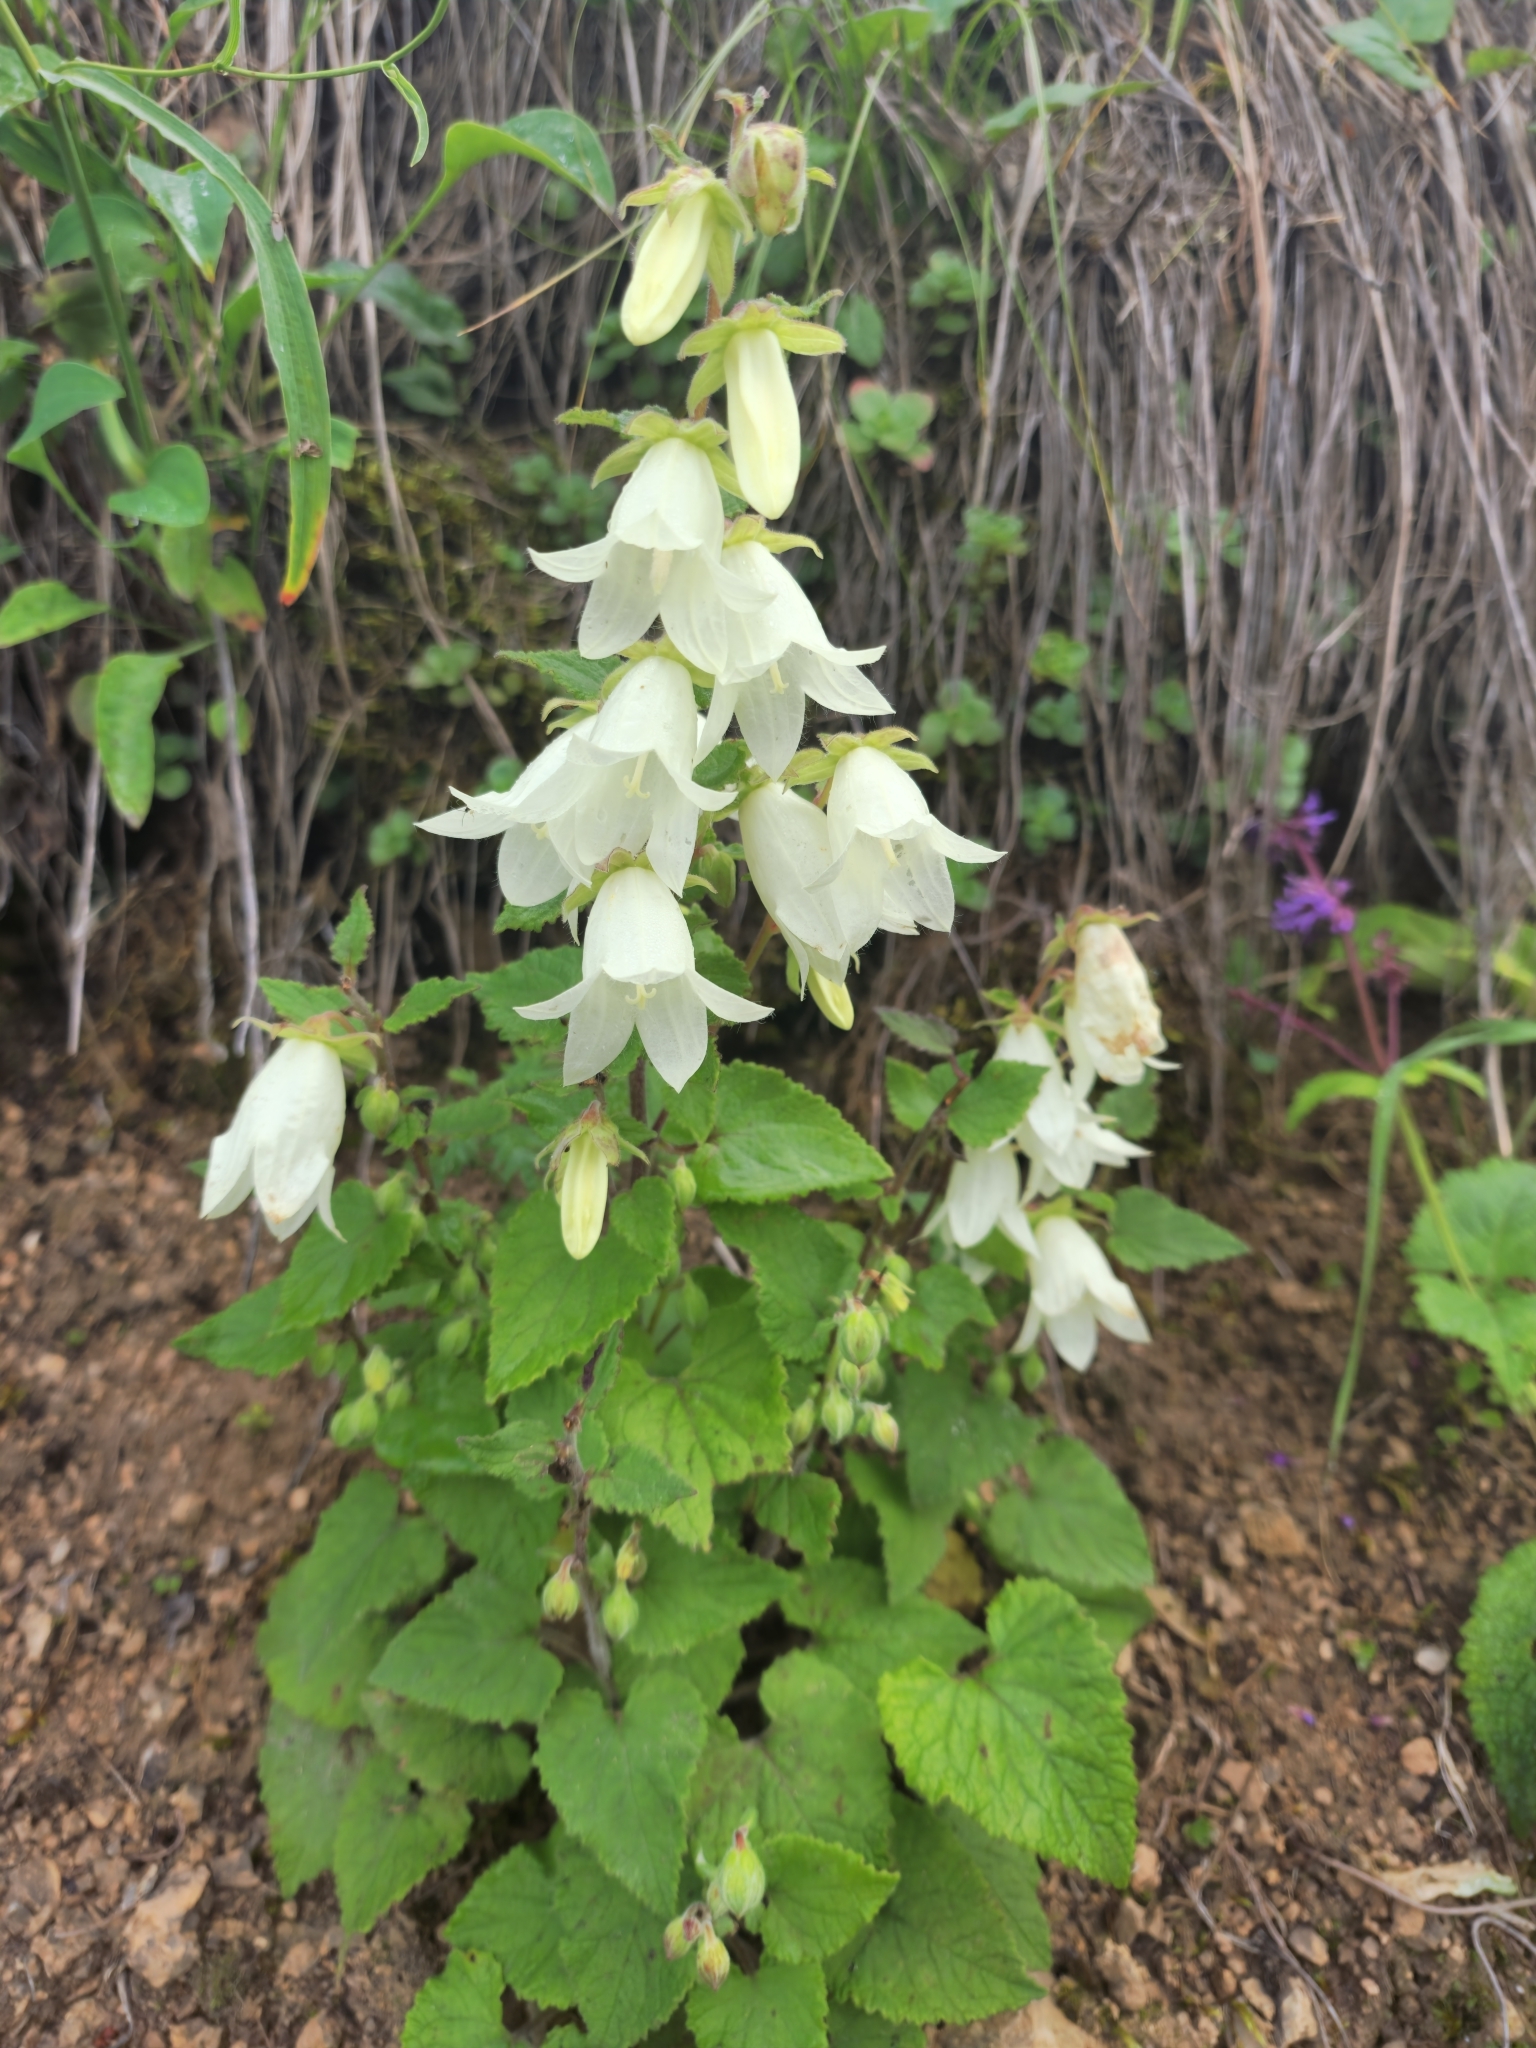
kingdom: Plantae
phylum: Tracheophyta
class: Magnoliopsida
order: Asterales
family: Campanulaceae
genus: Campanula
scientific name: Campanula alliariifolia
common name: Cornish bellflower
